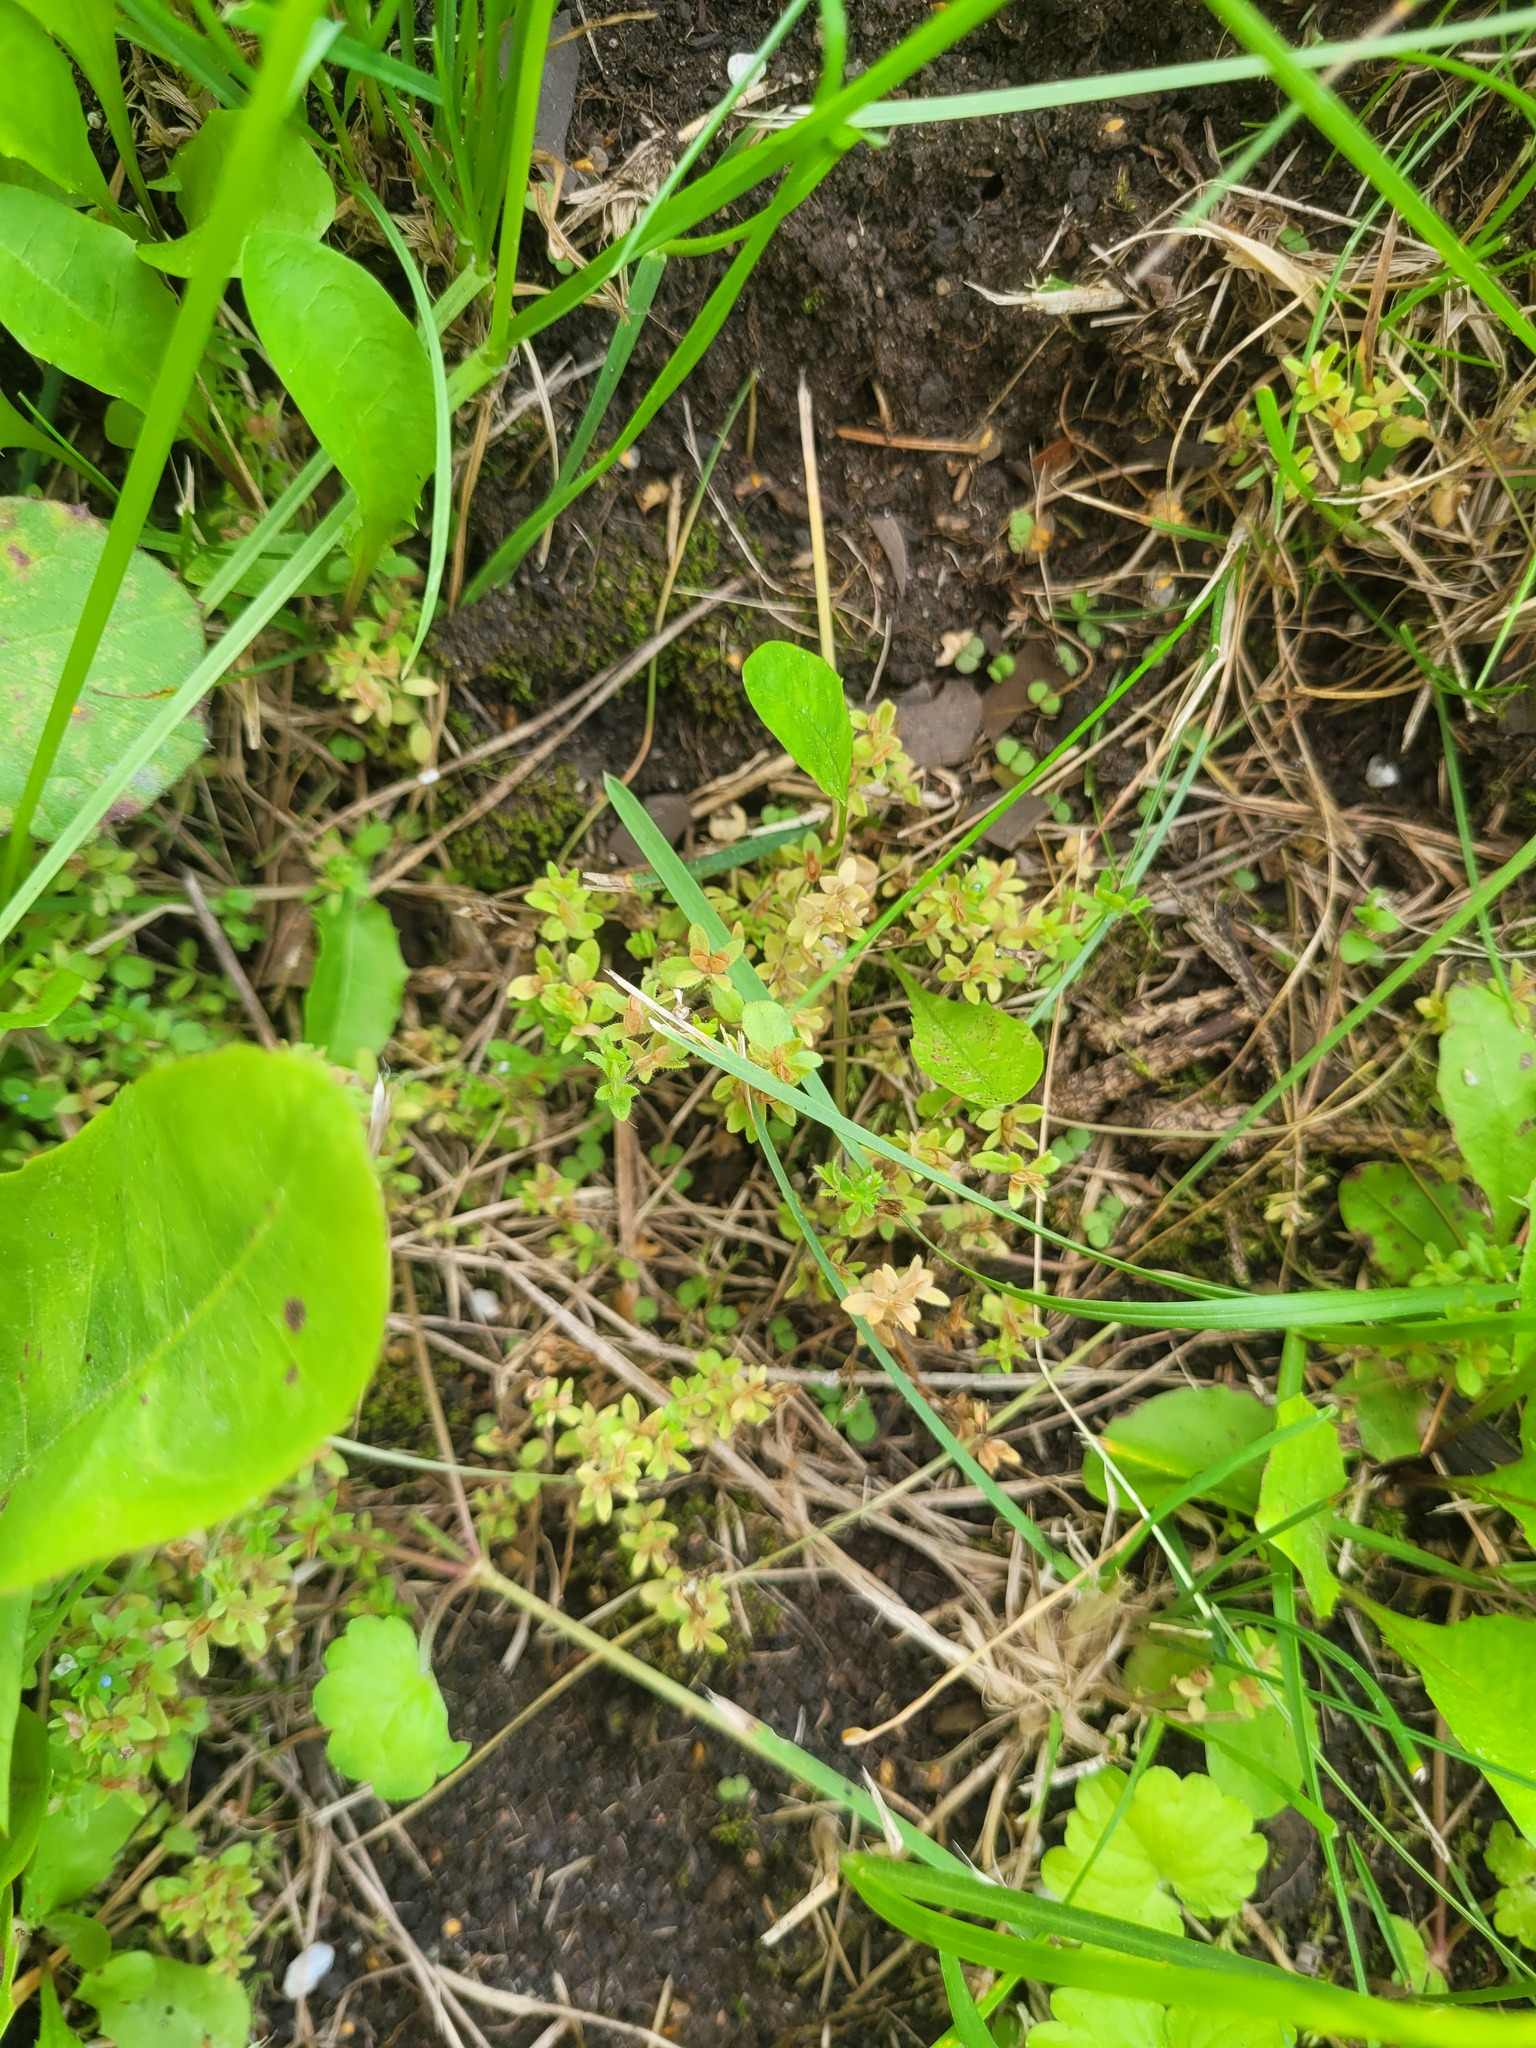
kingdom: Plantae
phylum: Tracheophyta
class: Magnoliopsida
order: Lamiales
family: Plantaginaceae
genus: Veronica
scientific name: Veronica arvensis
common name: Corn speedwell
